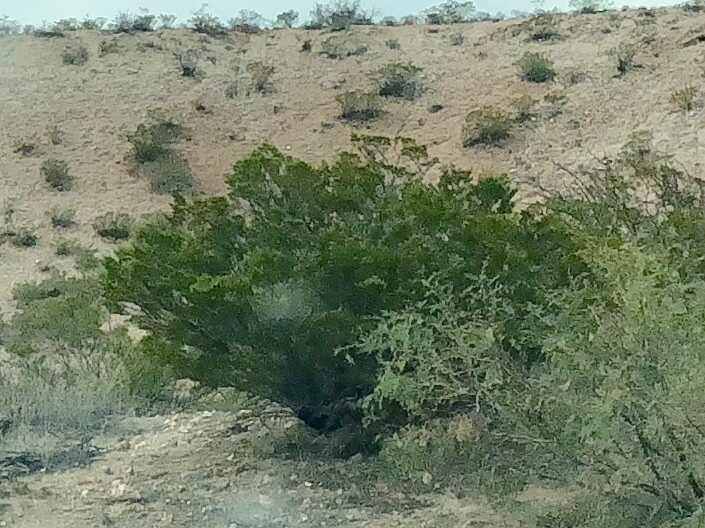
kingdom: Plantae
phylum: Tracheophyta
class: Magnoliopsida
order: Zygophyllales
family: Zygophyllaceae
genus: Larrea
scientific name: Larrea tridentata
